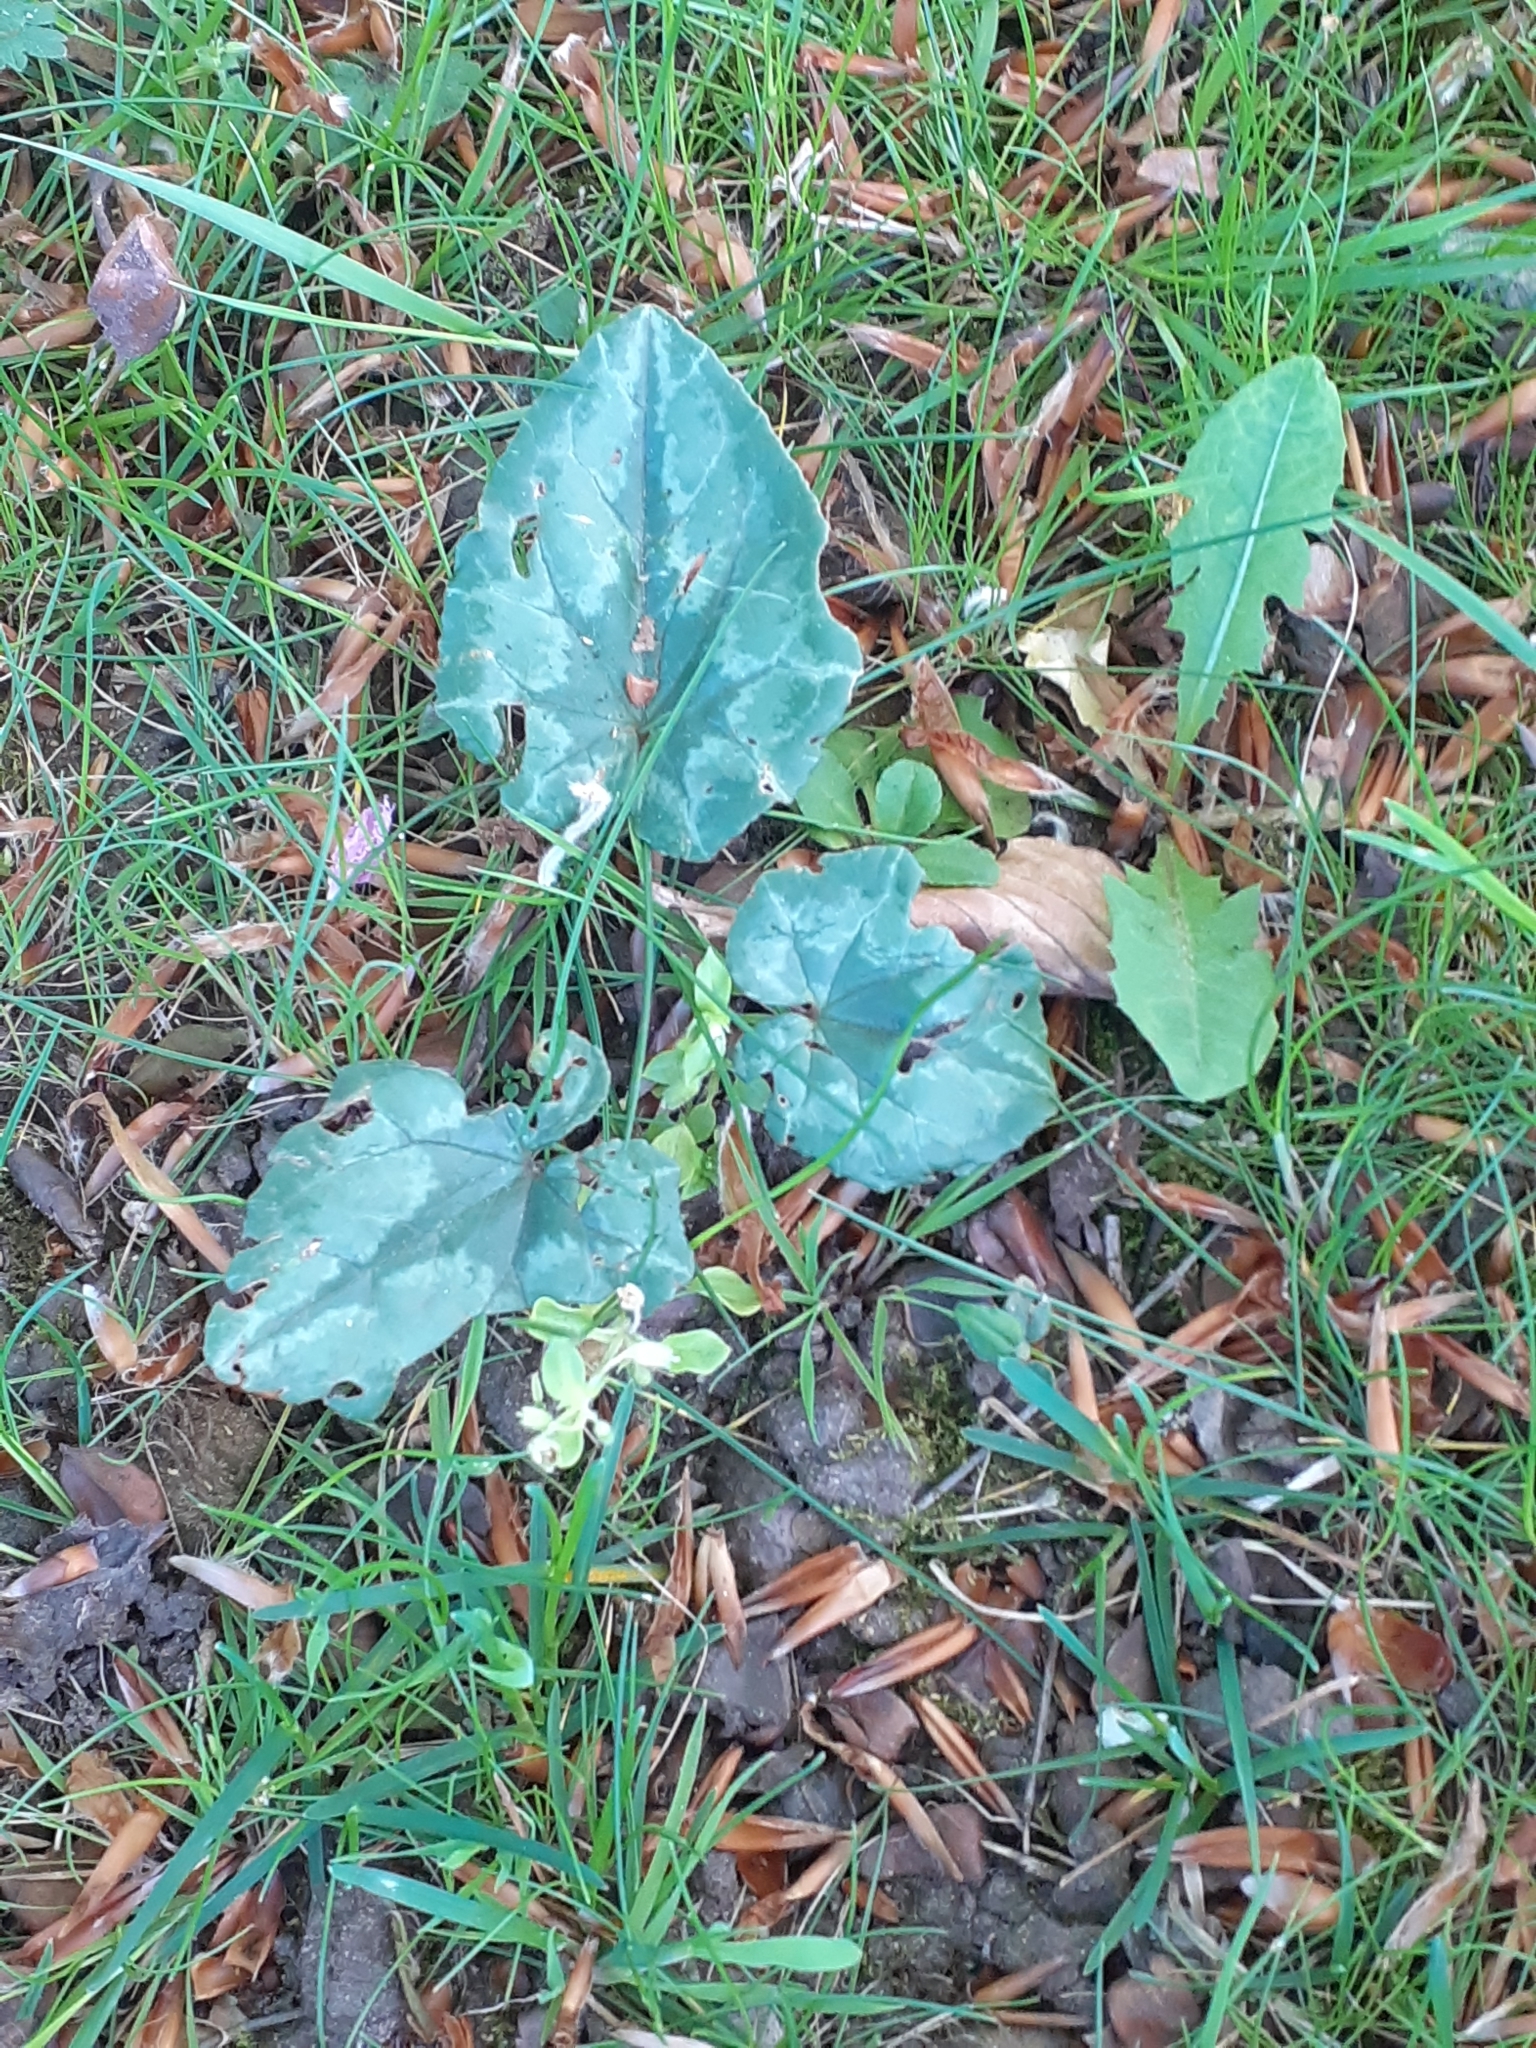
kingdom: Plantae
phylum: Tracheophyta
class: Magnoliopsida
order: Ericales
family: Primulaceae
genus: Cyclamen
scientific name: Cyclamen hederifolium
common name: Sowbread
